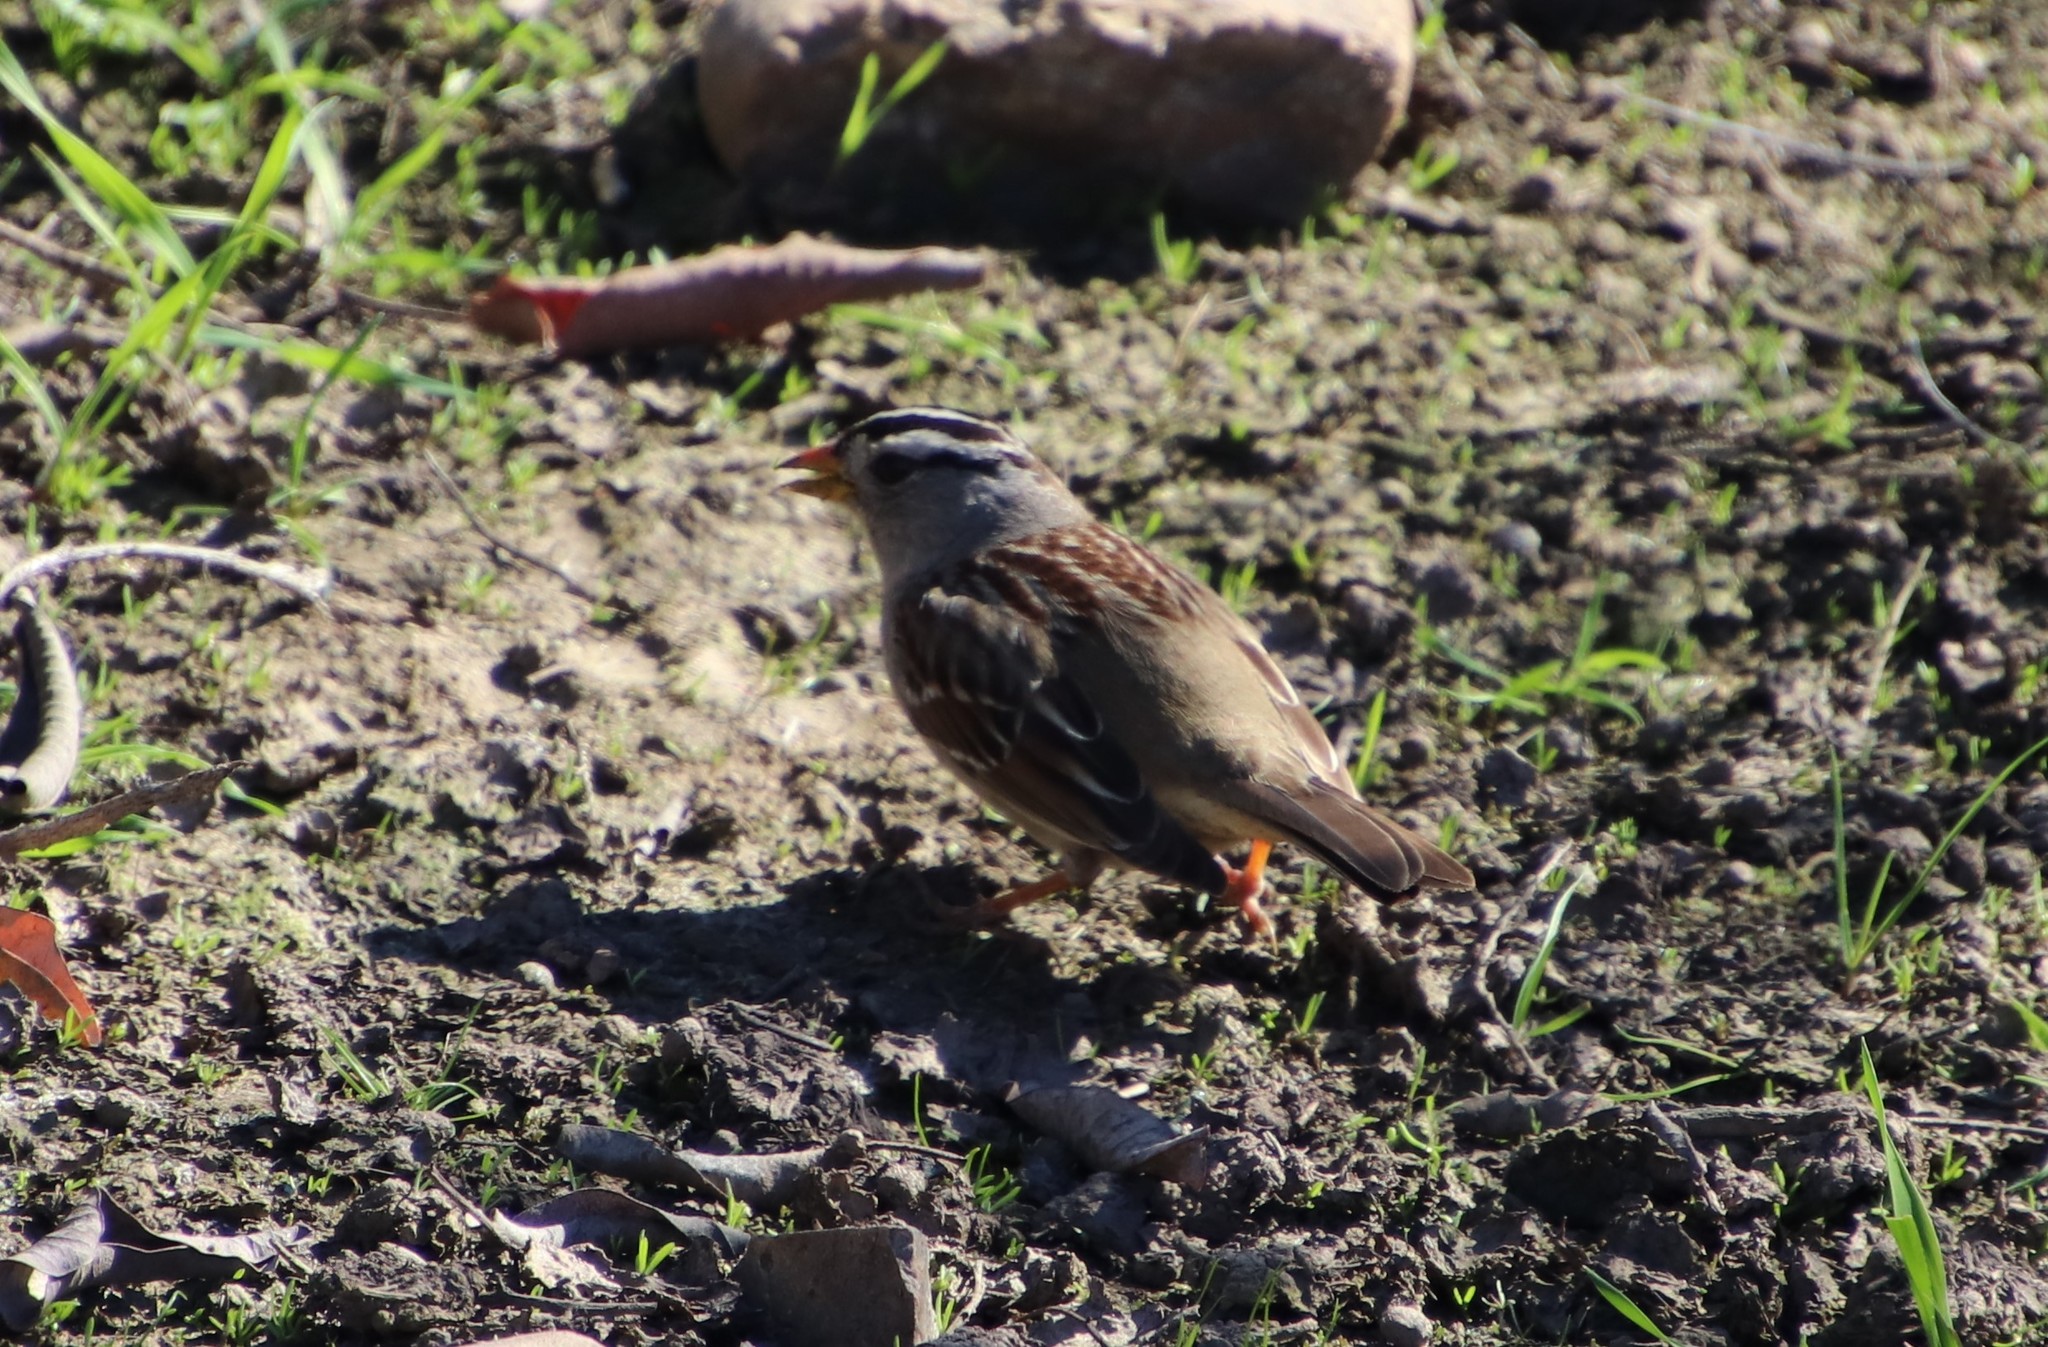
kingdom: Animalia
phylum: Chordata
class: Aves
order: Passeriformes
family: Passerellidae
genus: Zonotrichia
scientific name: Zonotrichia leucophrys
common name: White-crowned sparrow
